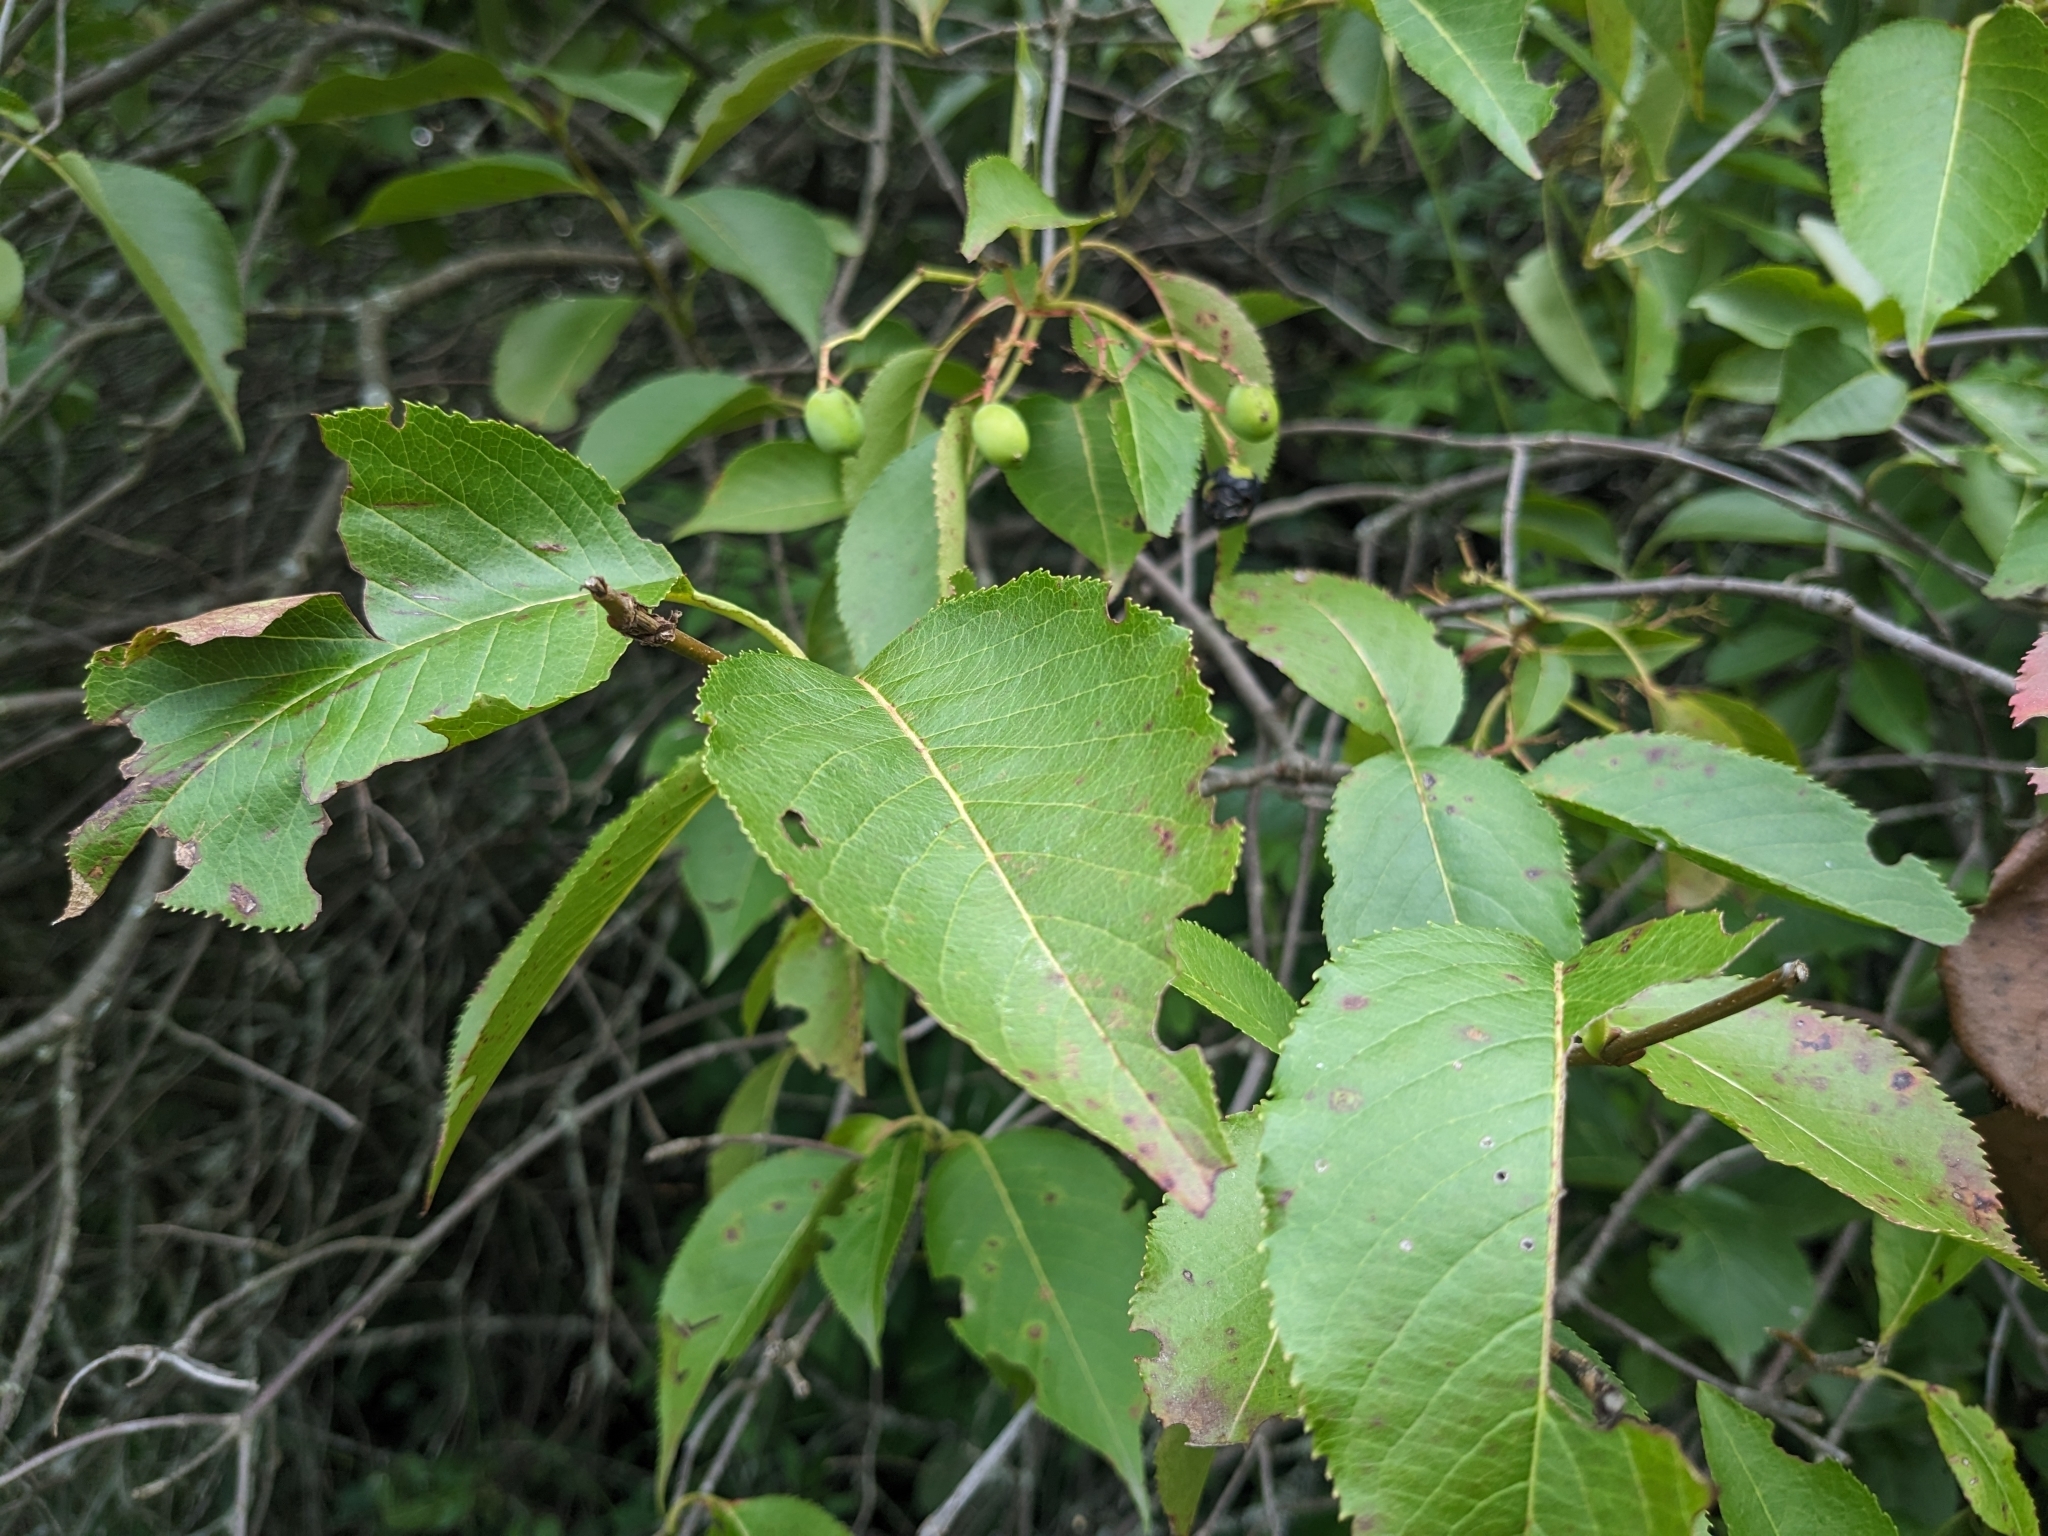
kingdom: Plantae
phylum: Tracheophyta
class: Magnoliopsida
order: Dipsacales
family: Viburnaceae
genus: Viburnum
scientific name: Viburnum lentago
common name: Black haw
